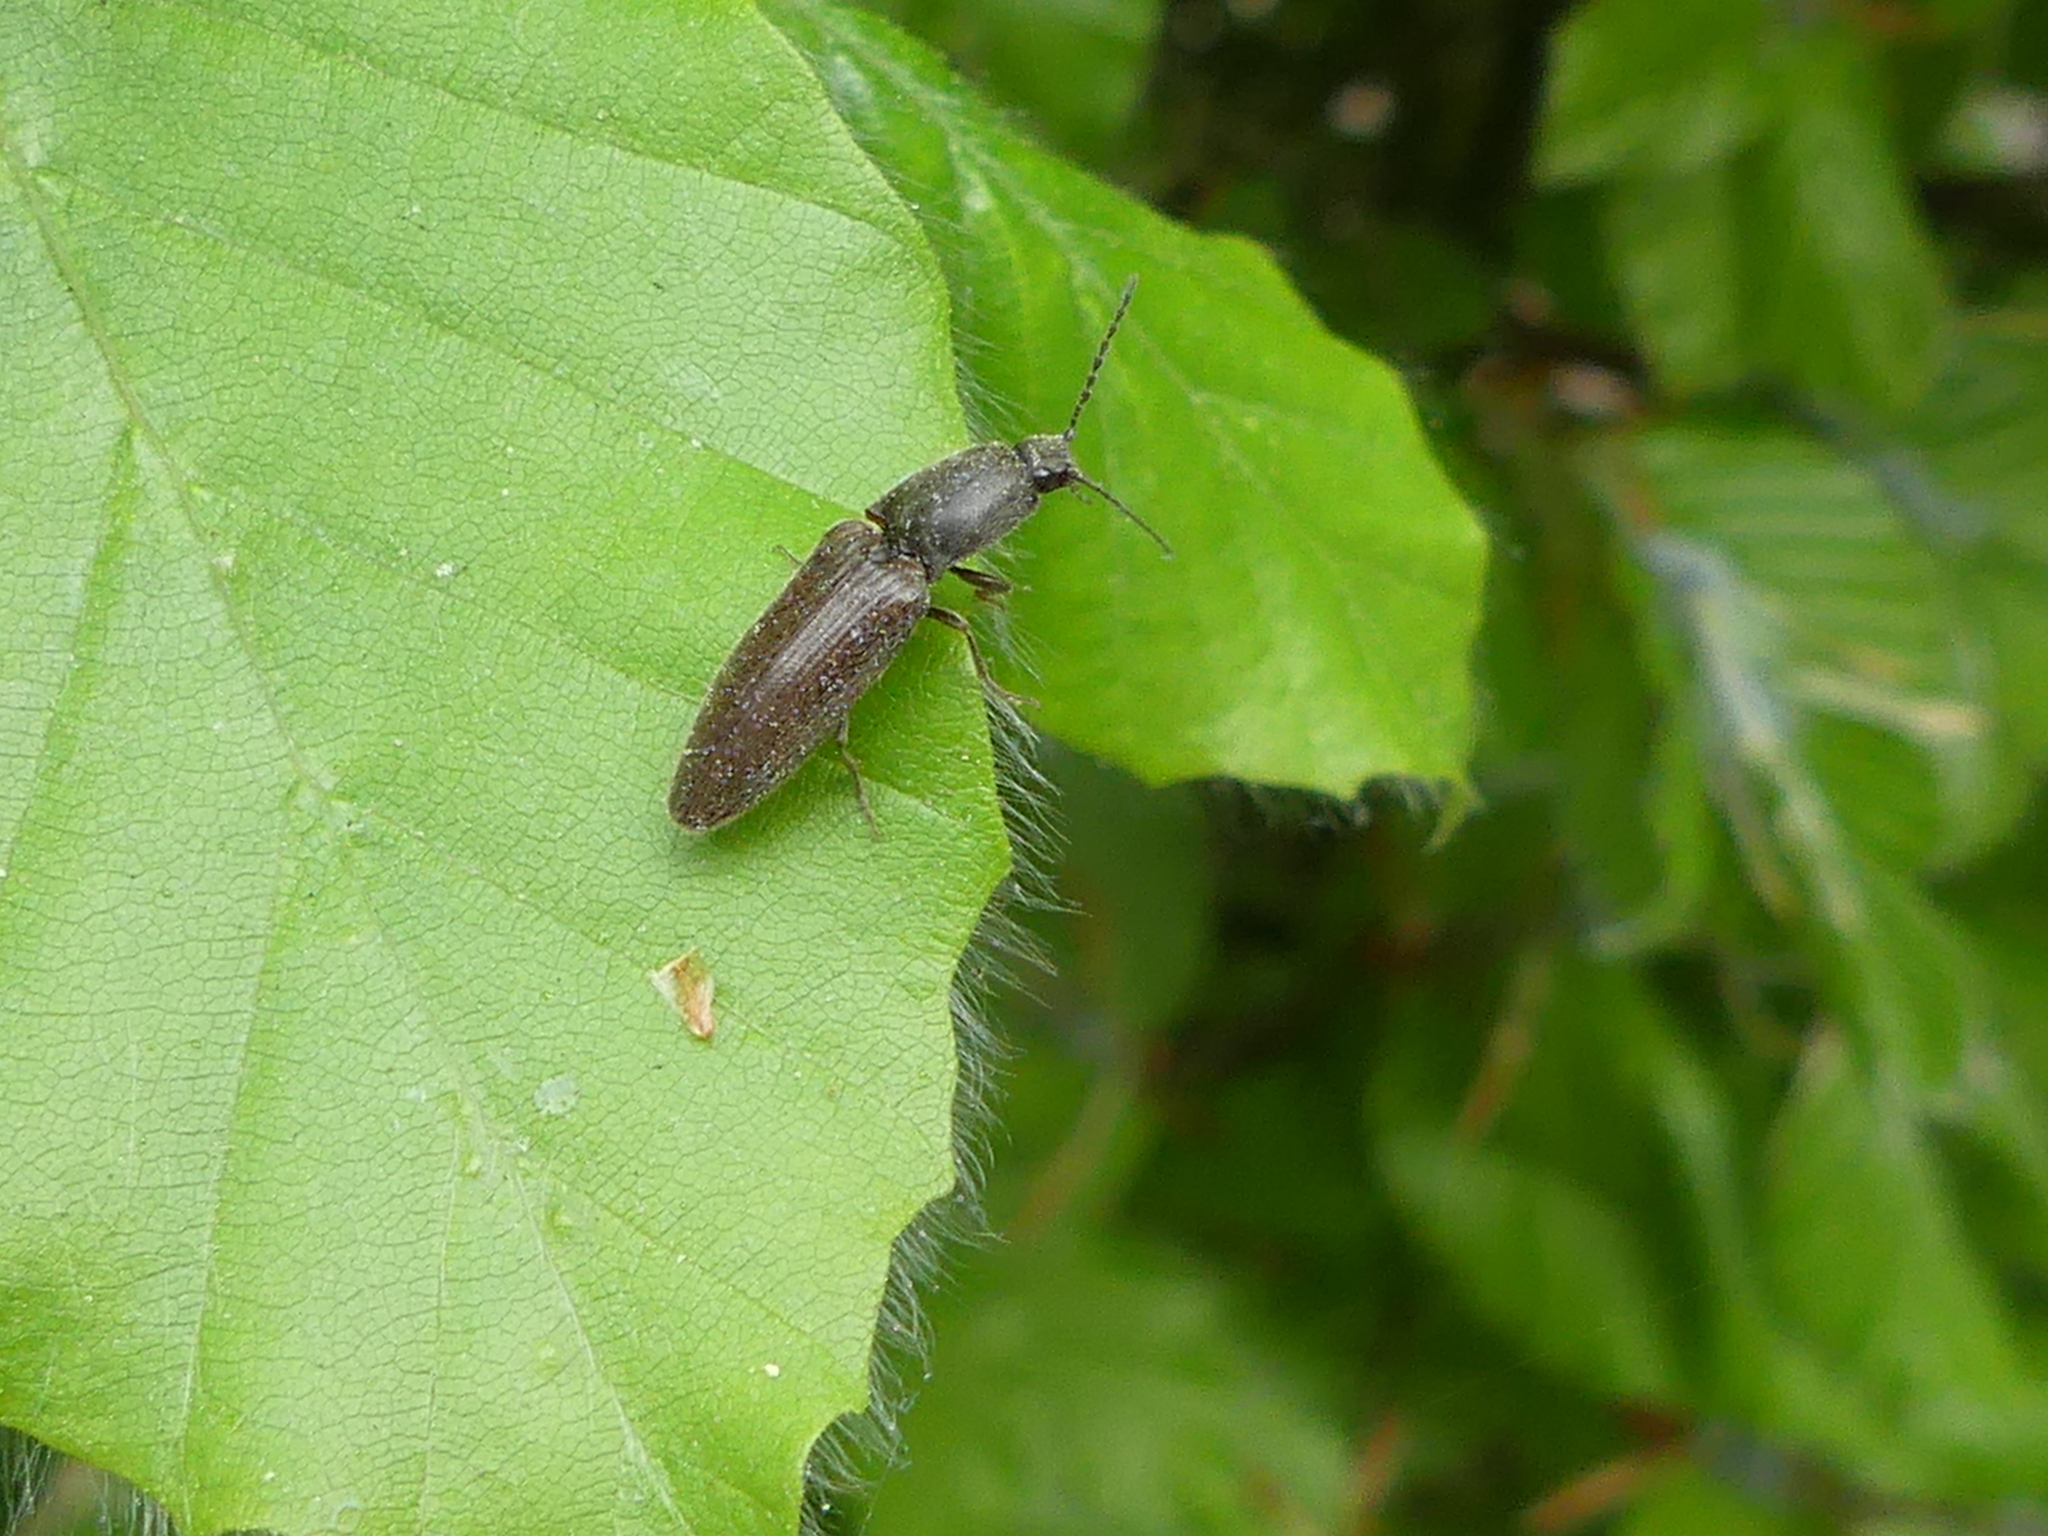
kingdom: Animalia
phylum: Arthropoda
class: Insecta
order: Coleoptera
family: Elateridae
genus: Athous
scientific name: Athous haemorrhoidalis
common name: Red-brown click beetle
